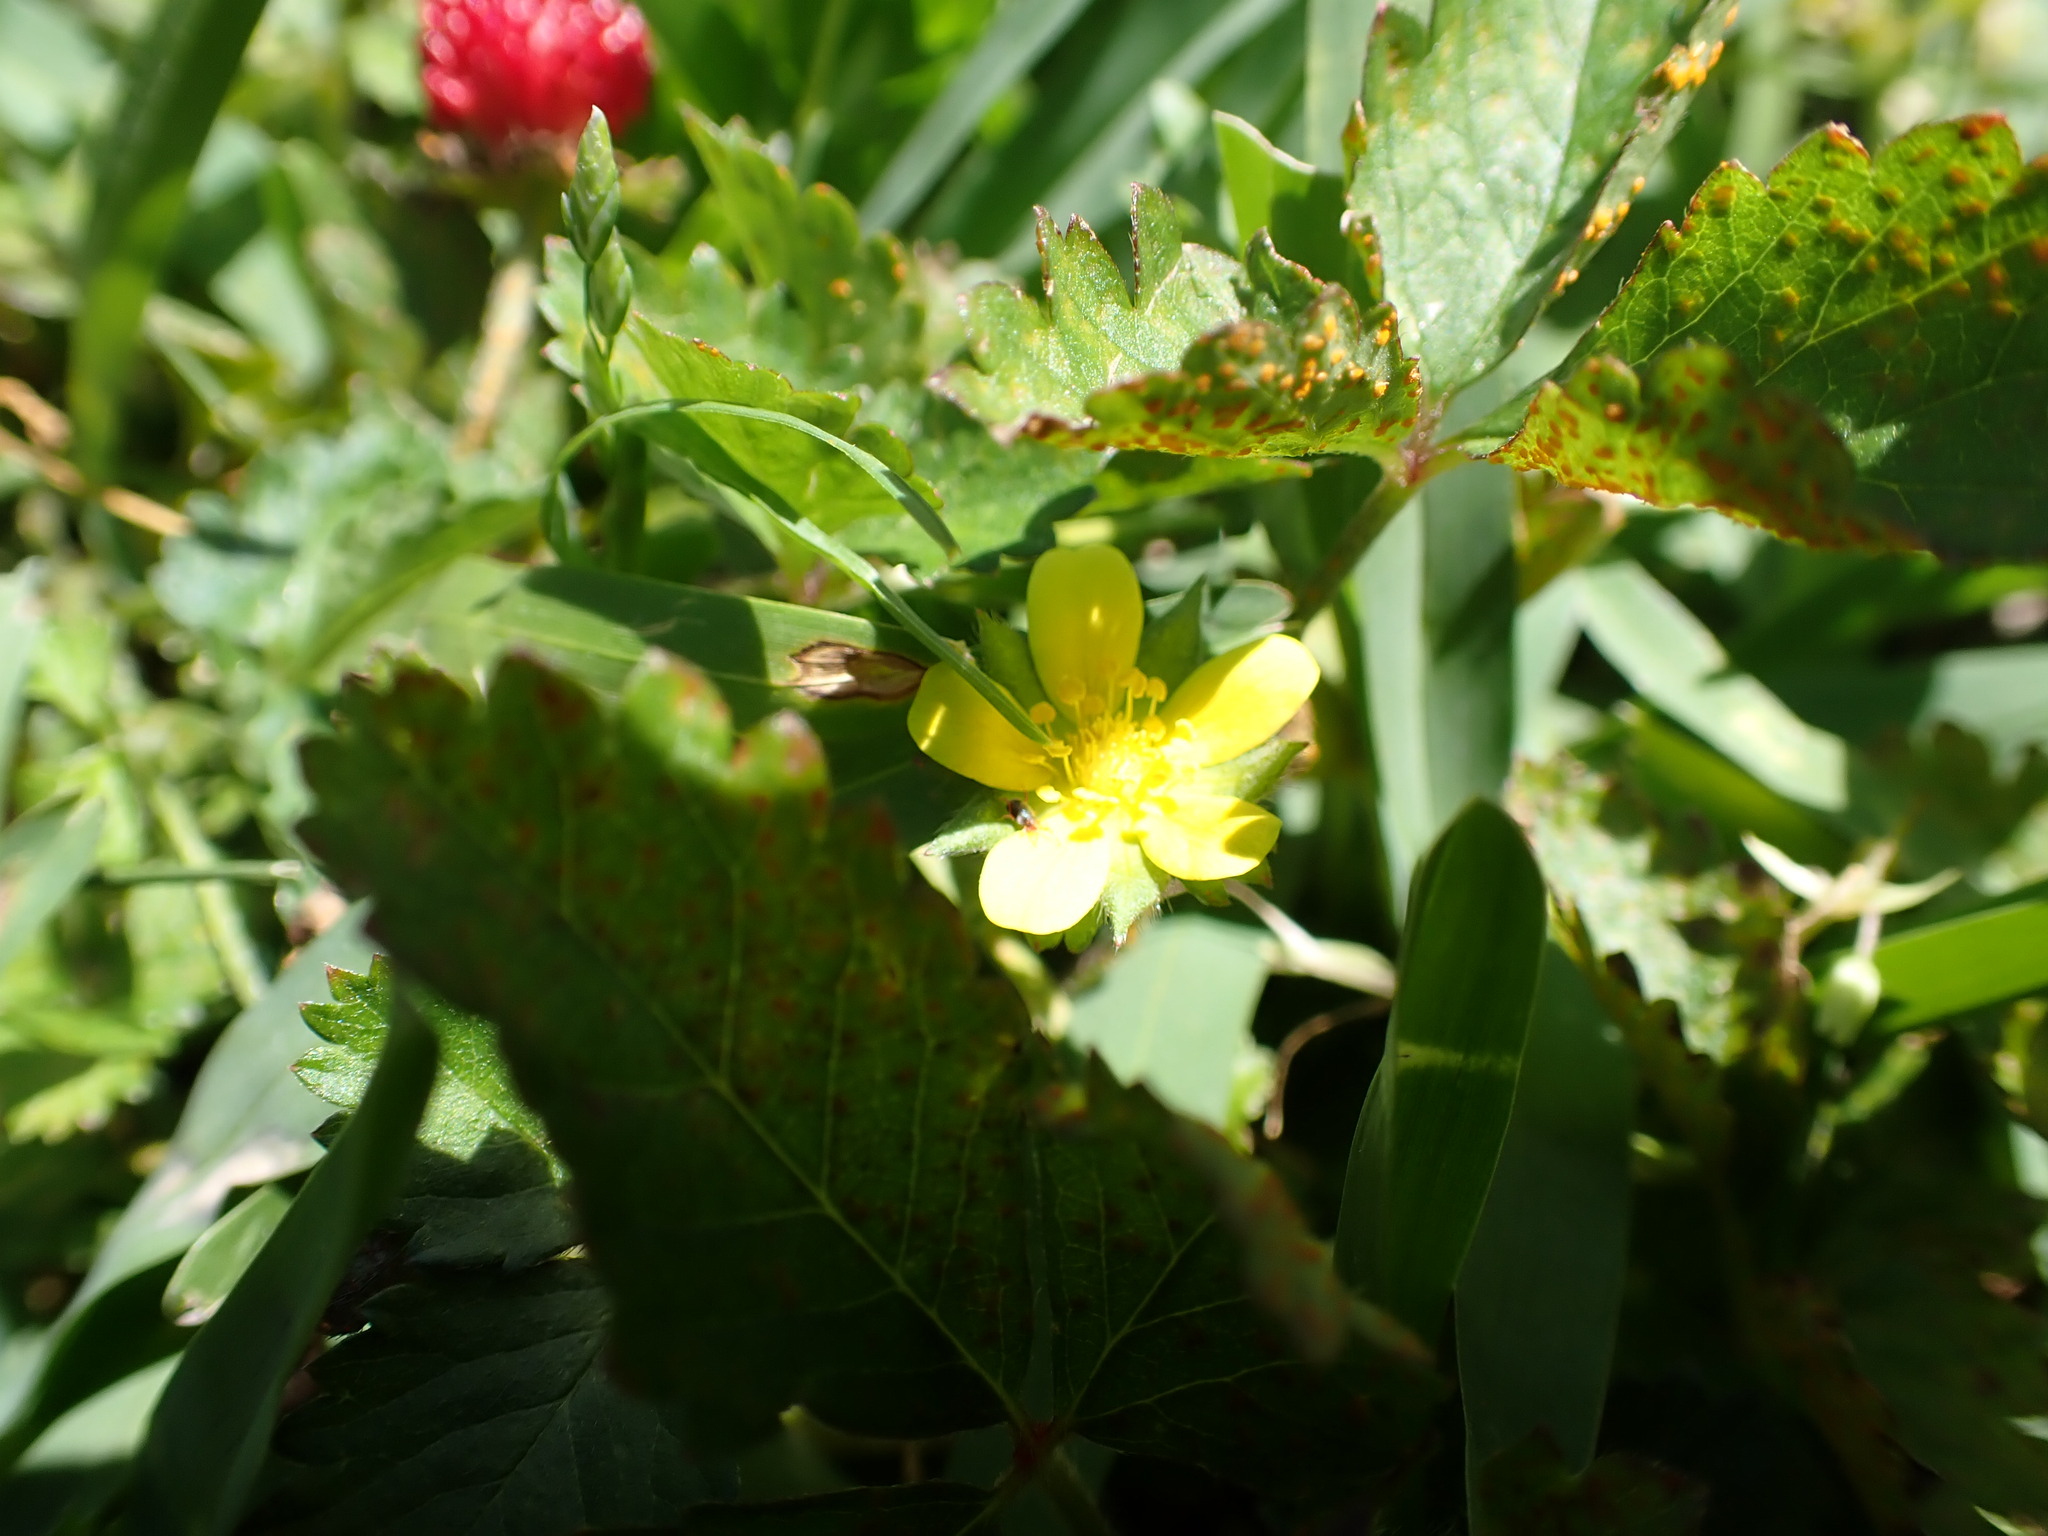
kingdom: Plantae
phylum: Tracheophyta
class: Magnoliopsida
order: Rosales
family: Rosaceae
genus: Potentilla
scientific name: Potentilla indica
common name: Yellow-flowered strawberry
